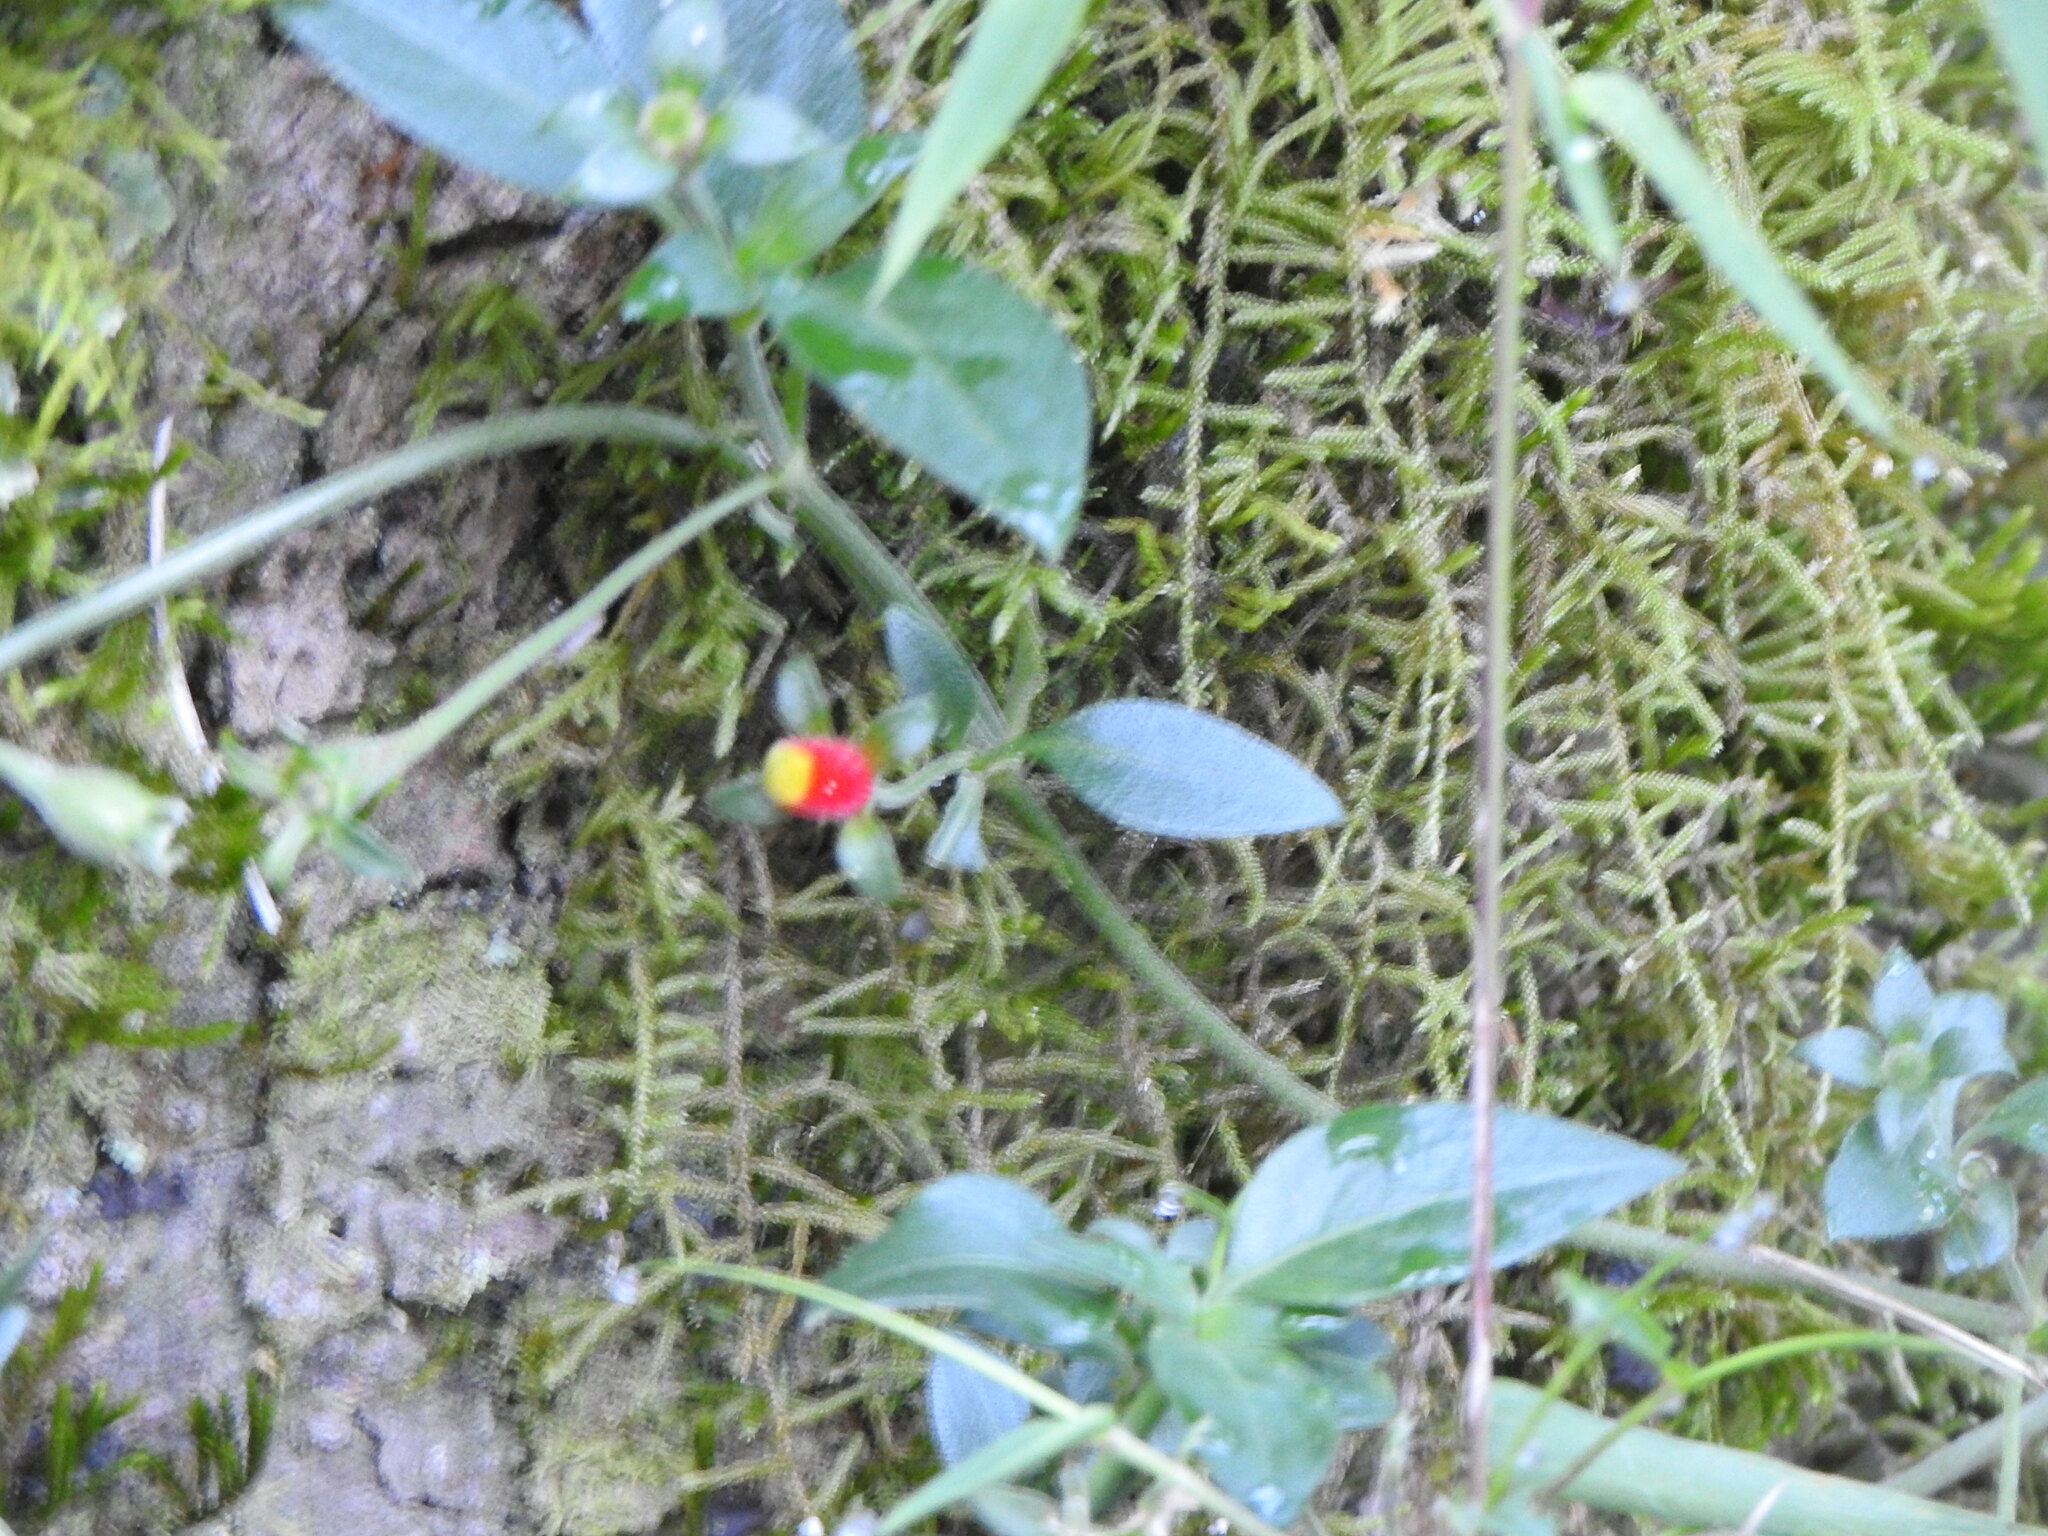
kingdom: Plantae
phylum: Tracheophyta
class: Magnoliopsida
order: Gentianales
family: Rubiaceae
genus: Manettia
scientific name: Manettia paraguariensis
